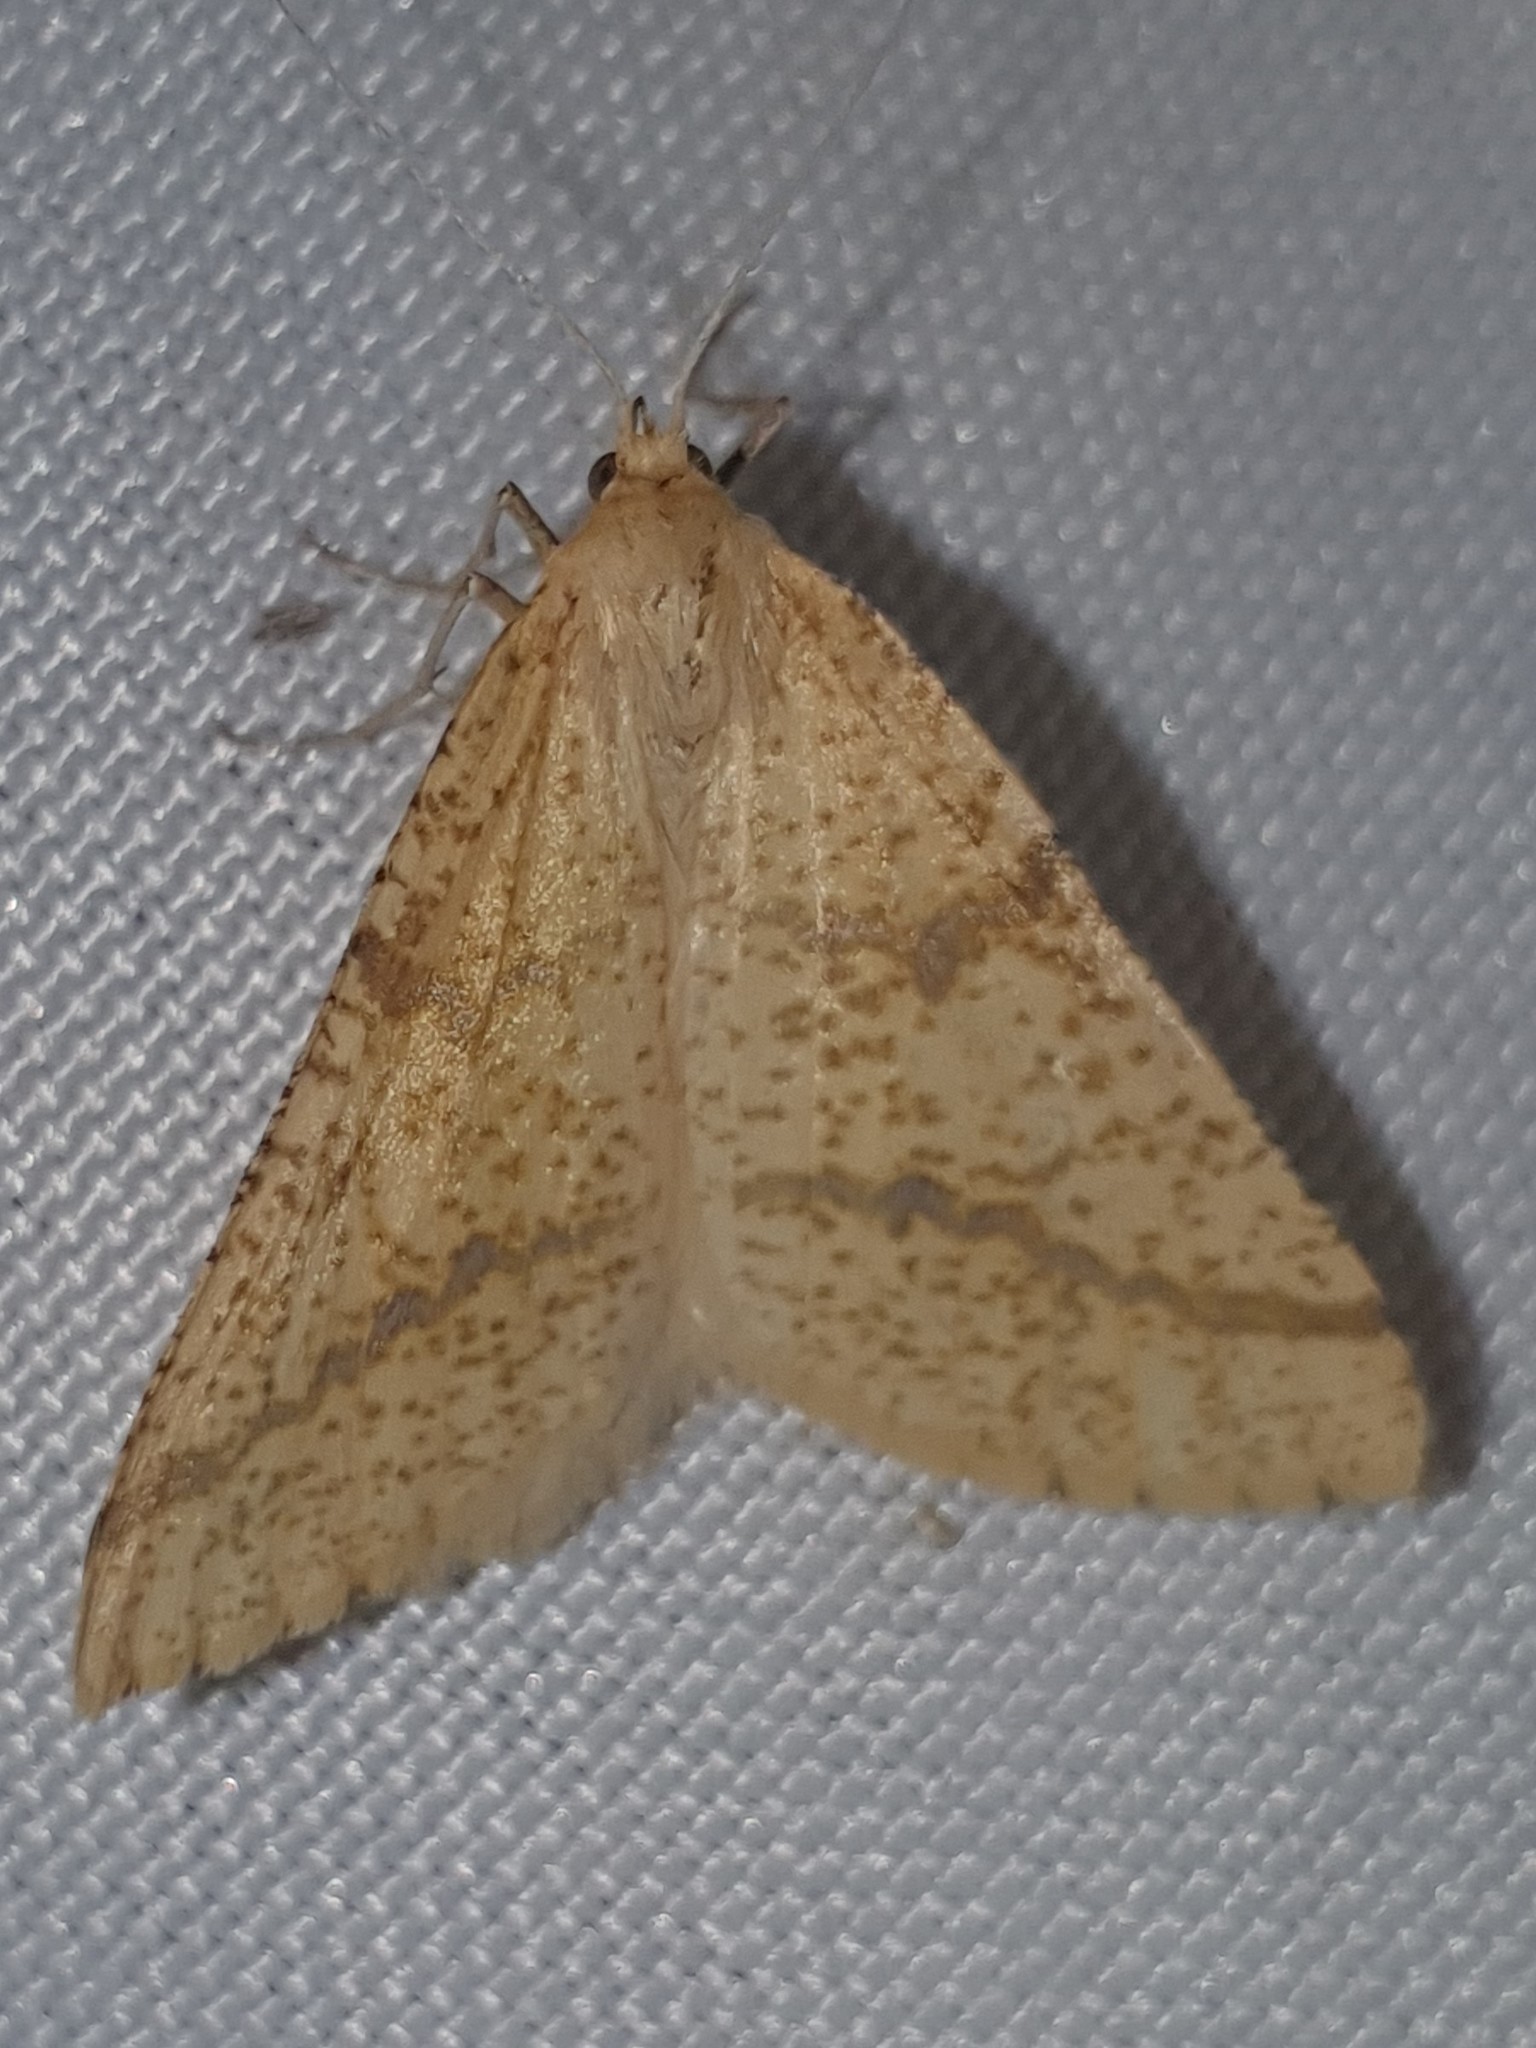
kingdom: Animalia
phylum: Arthropoda
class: Insecta
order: Lepidoptera
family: Geometridae
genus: Aspitates
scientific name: Aspitates ochrearia
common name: Yellow belle
